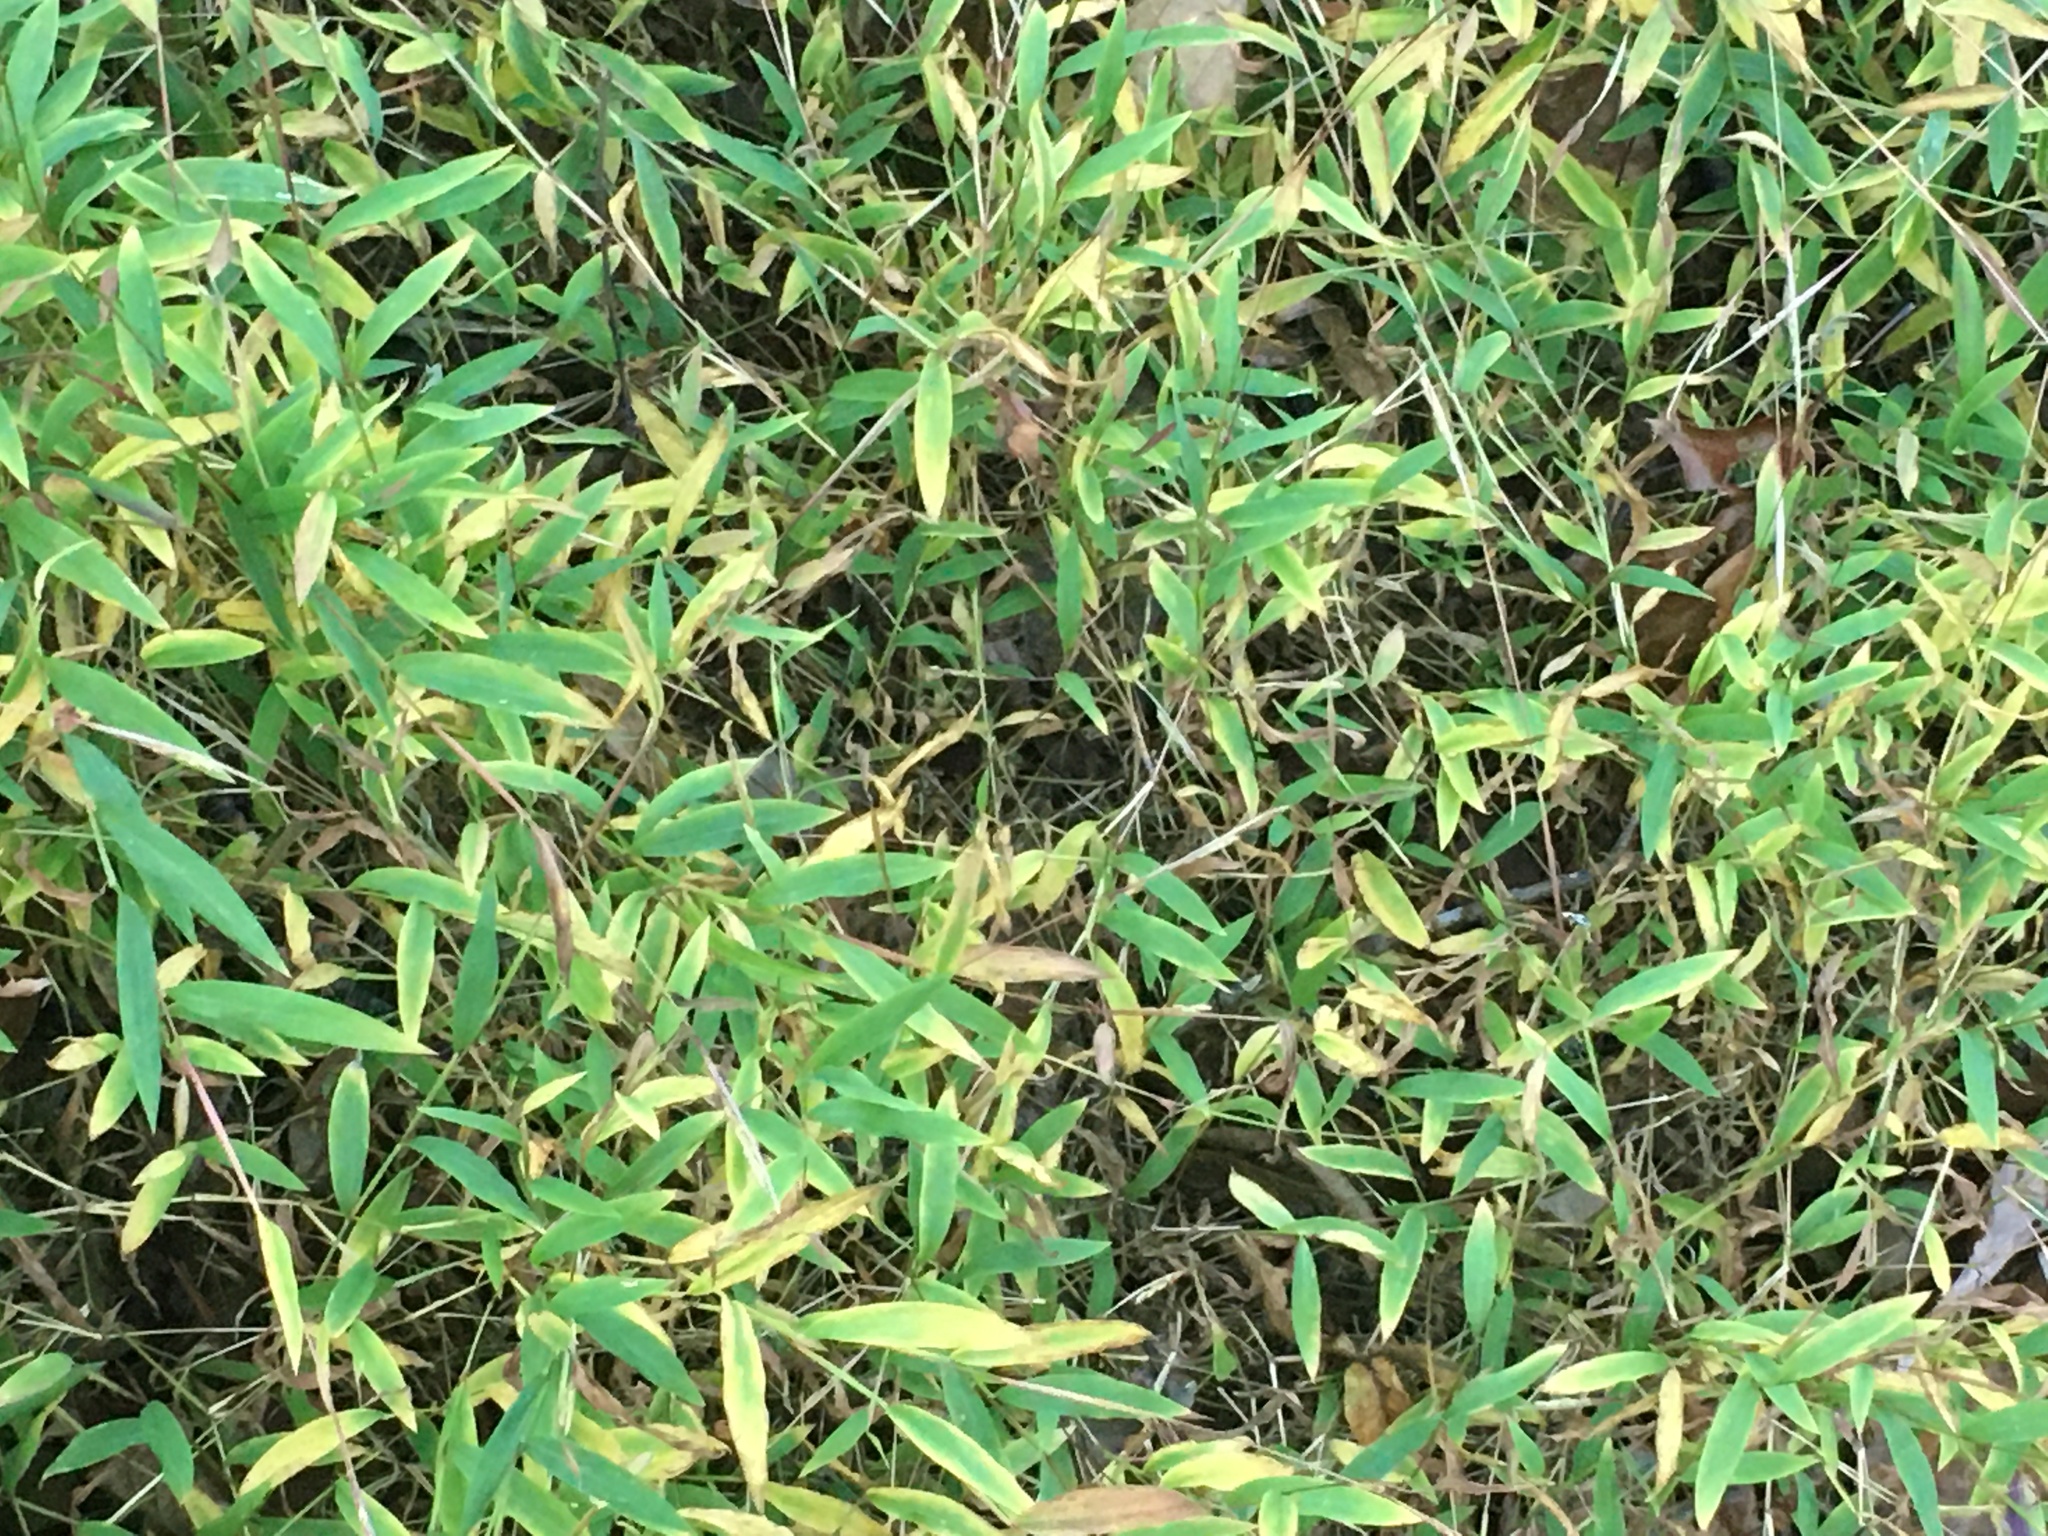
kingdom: Plantae
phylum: Tracheophyta
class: Liliopsida
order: Poales
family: Poaceae
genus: Microstegium
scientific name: Microstegium vimineum
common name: Japanese stiltgrass
